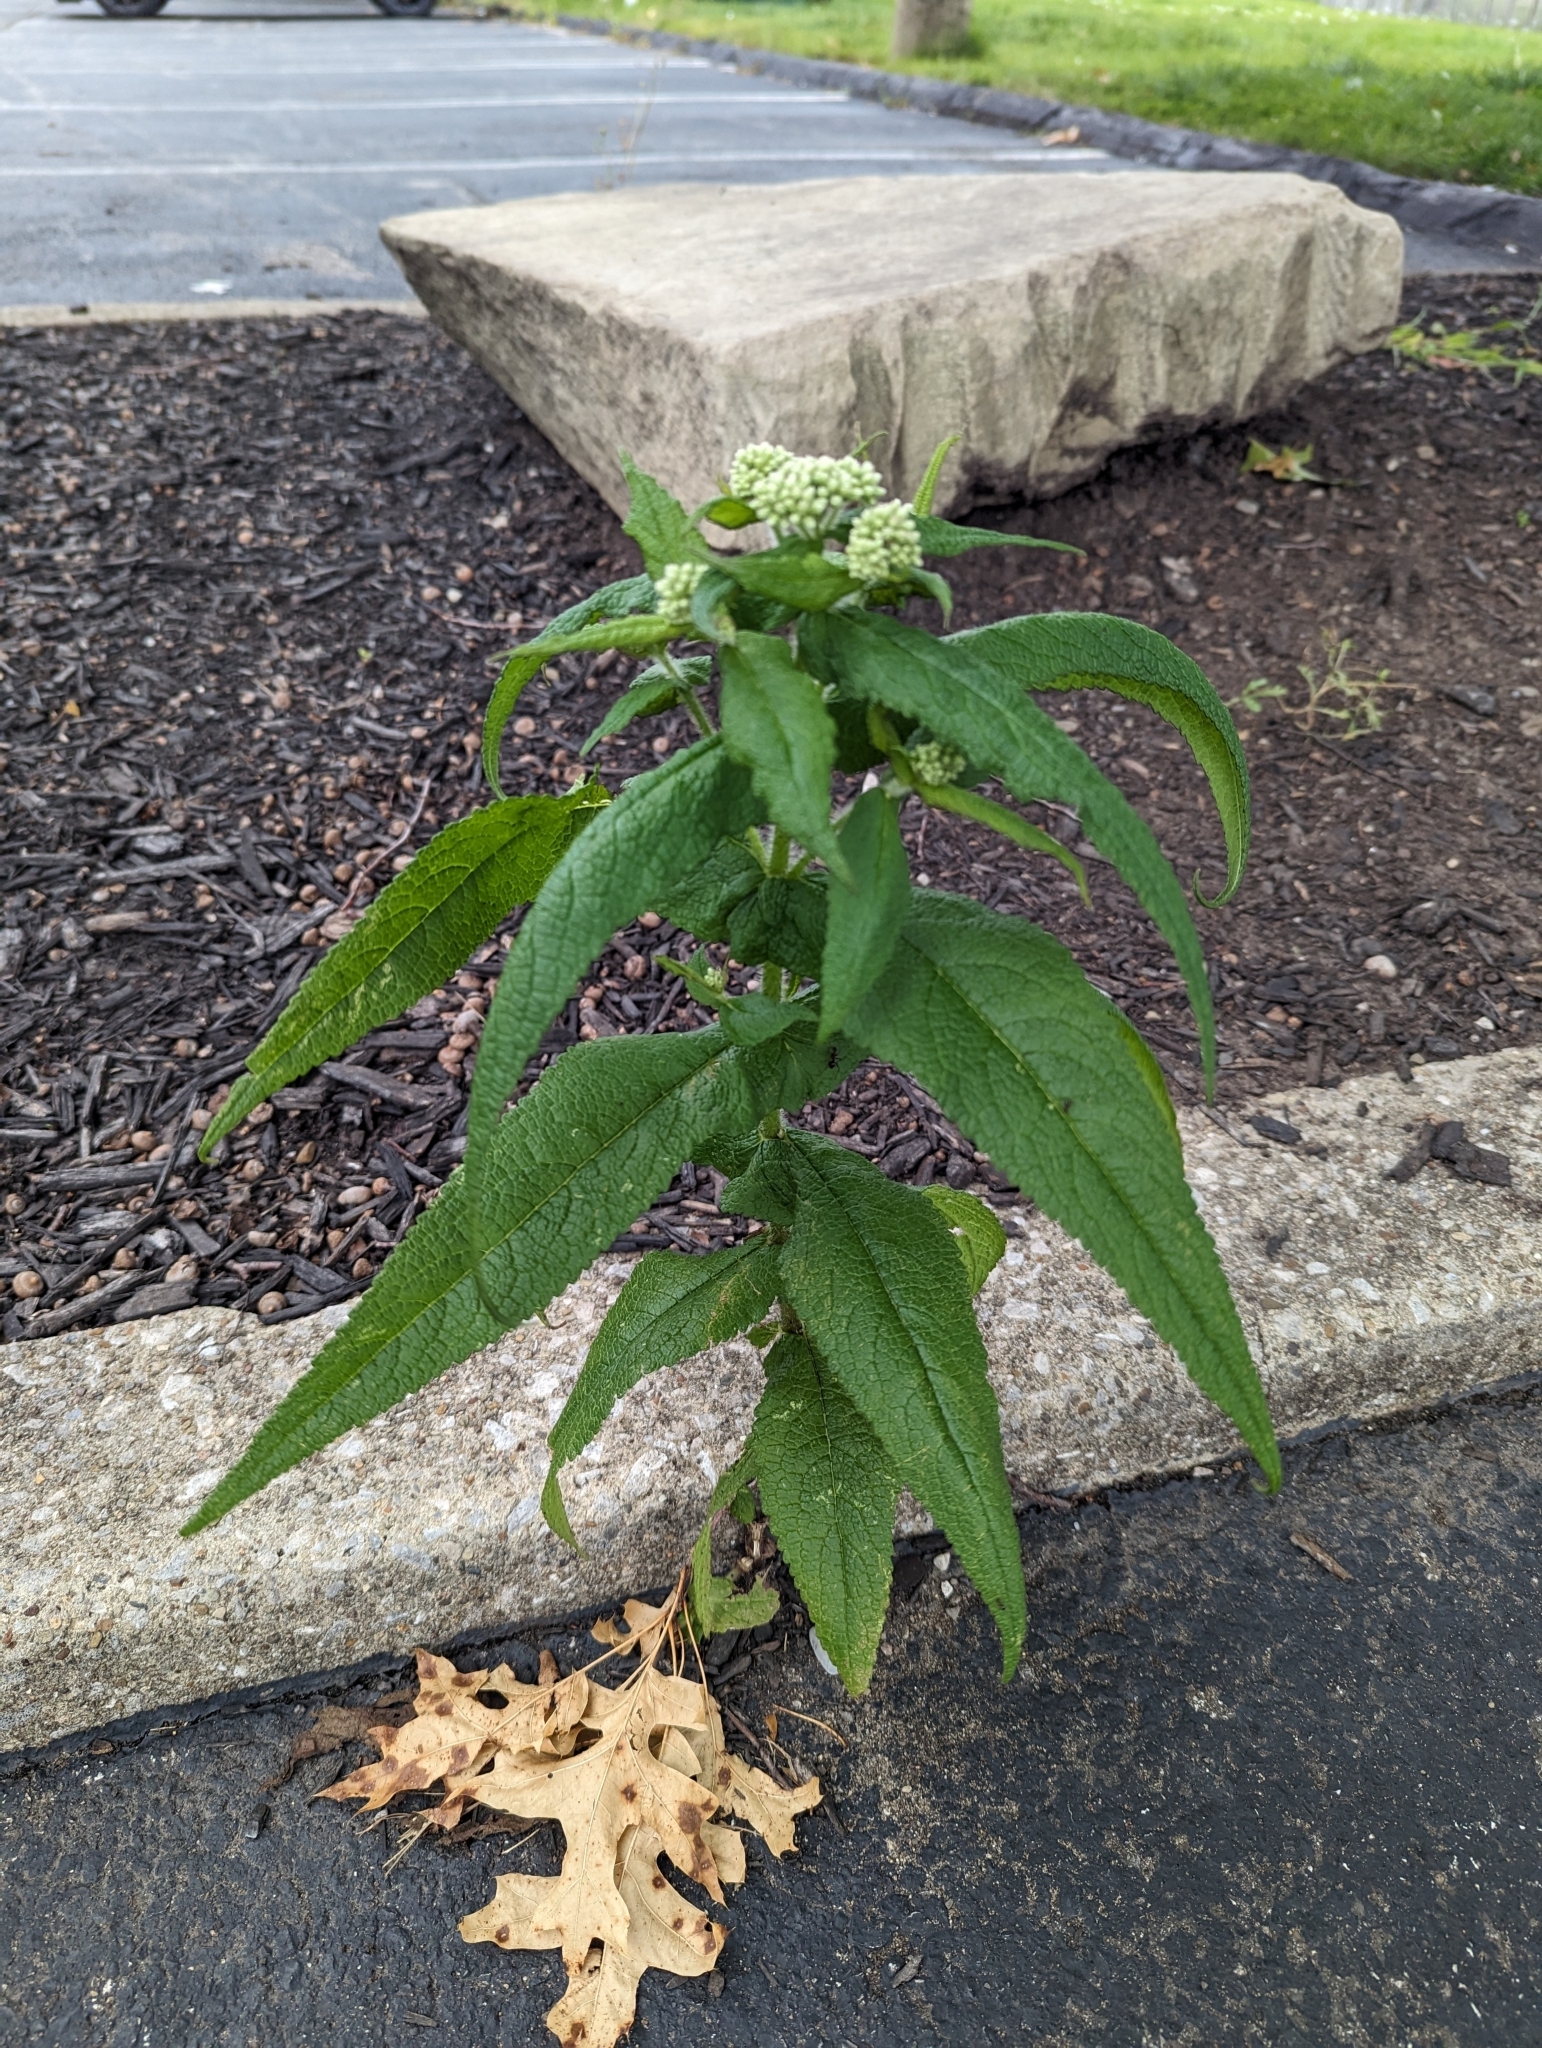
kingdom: Plantae
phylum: Tracheophyta
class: Magnoliopsida
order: Asterales
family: Asteraceae
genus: Eupatorium
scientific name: Eupatorium perfoliatum
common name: Boneset
